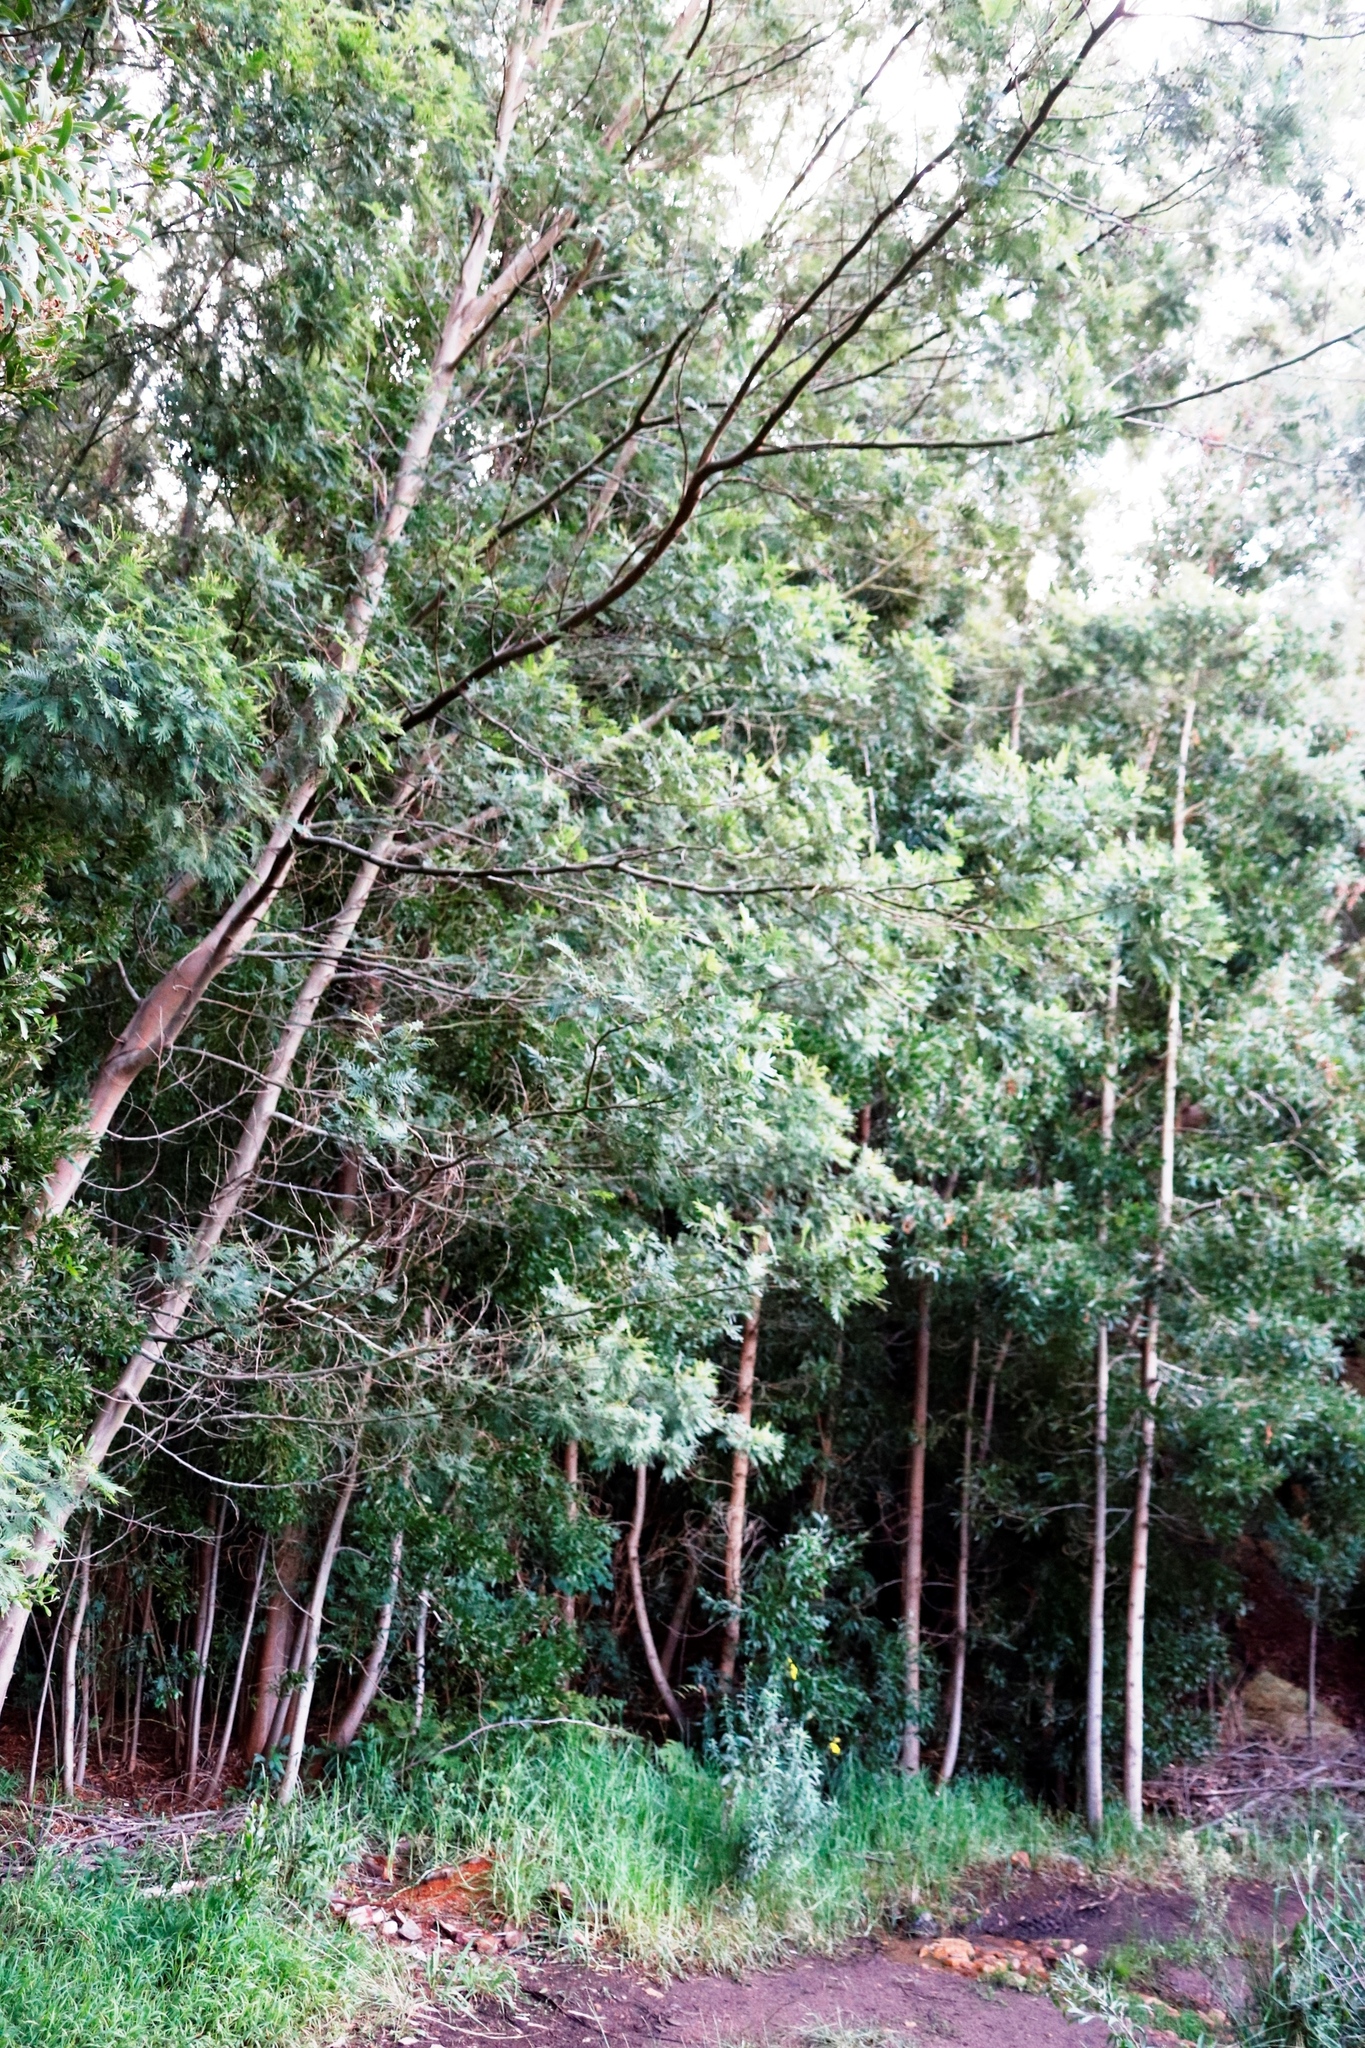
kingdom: Plantae
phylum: Tracheophyta
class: Magnoliopsida
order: Fabales
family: Fabaceae
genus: Acacia
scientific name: Acacia mearnsii
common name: Black wattle
